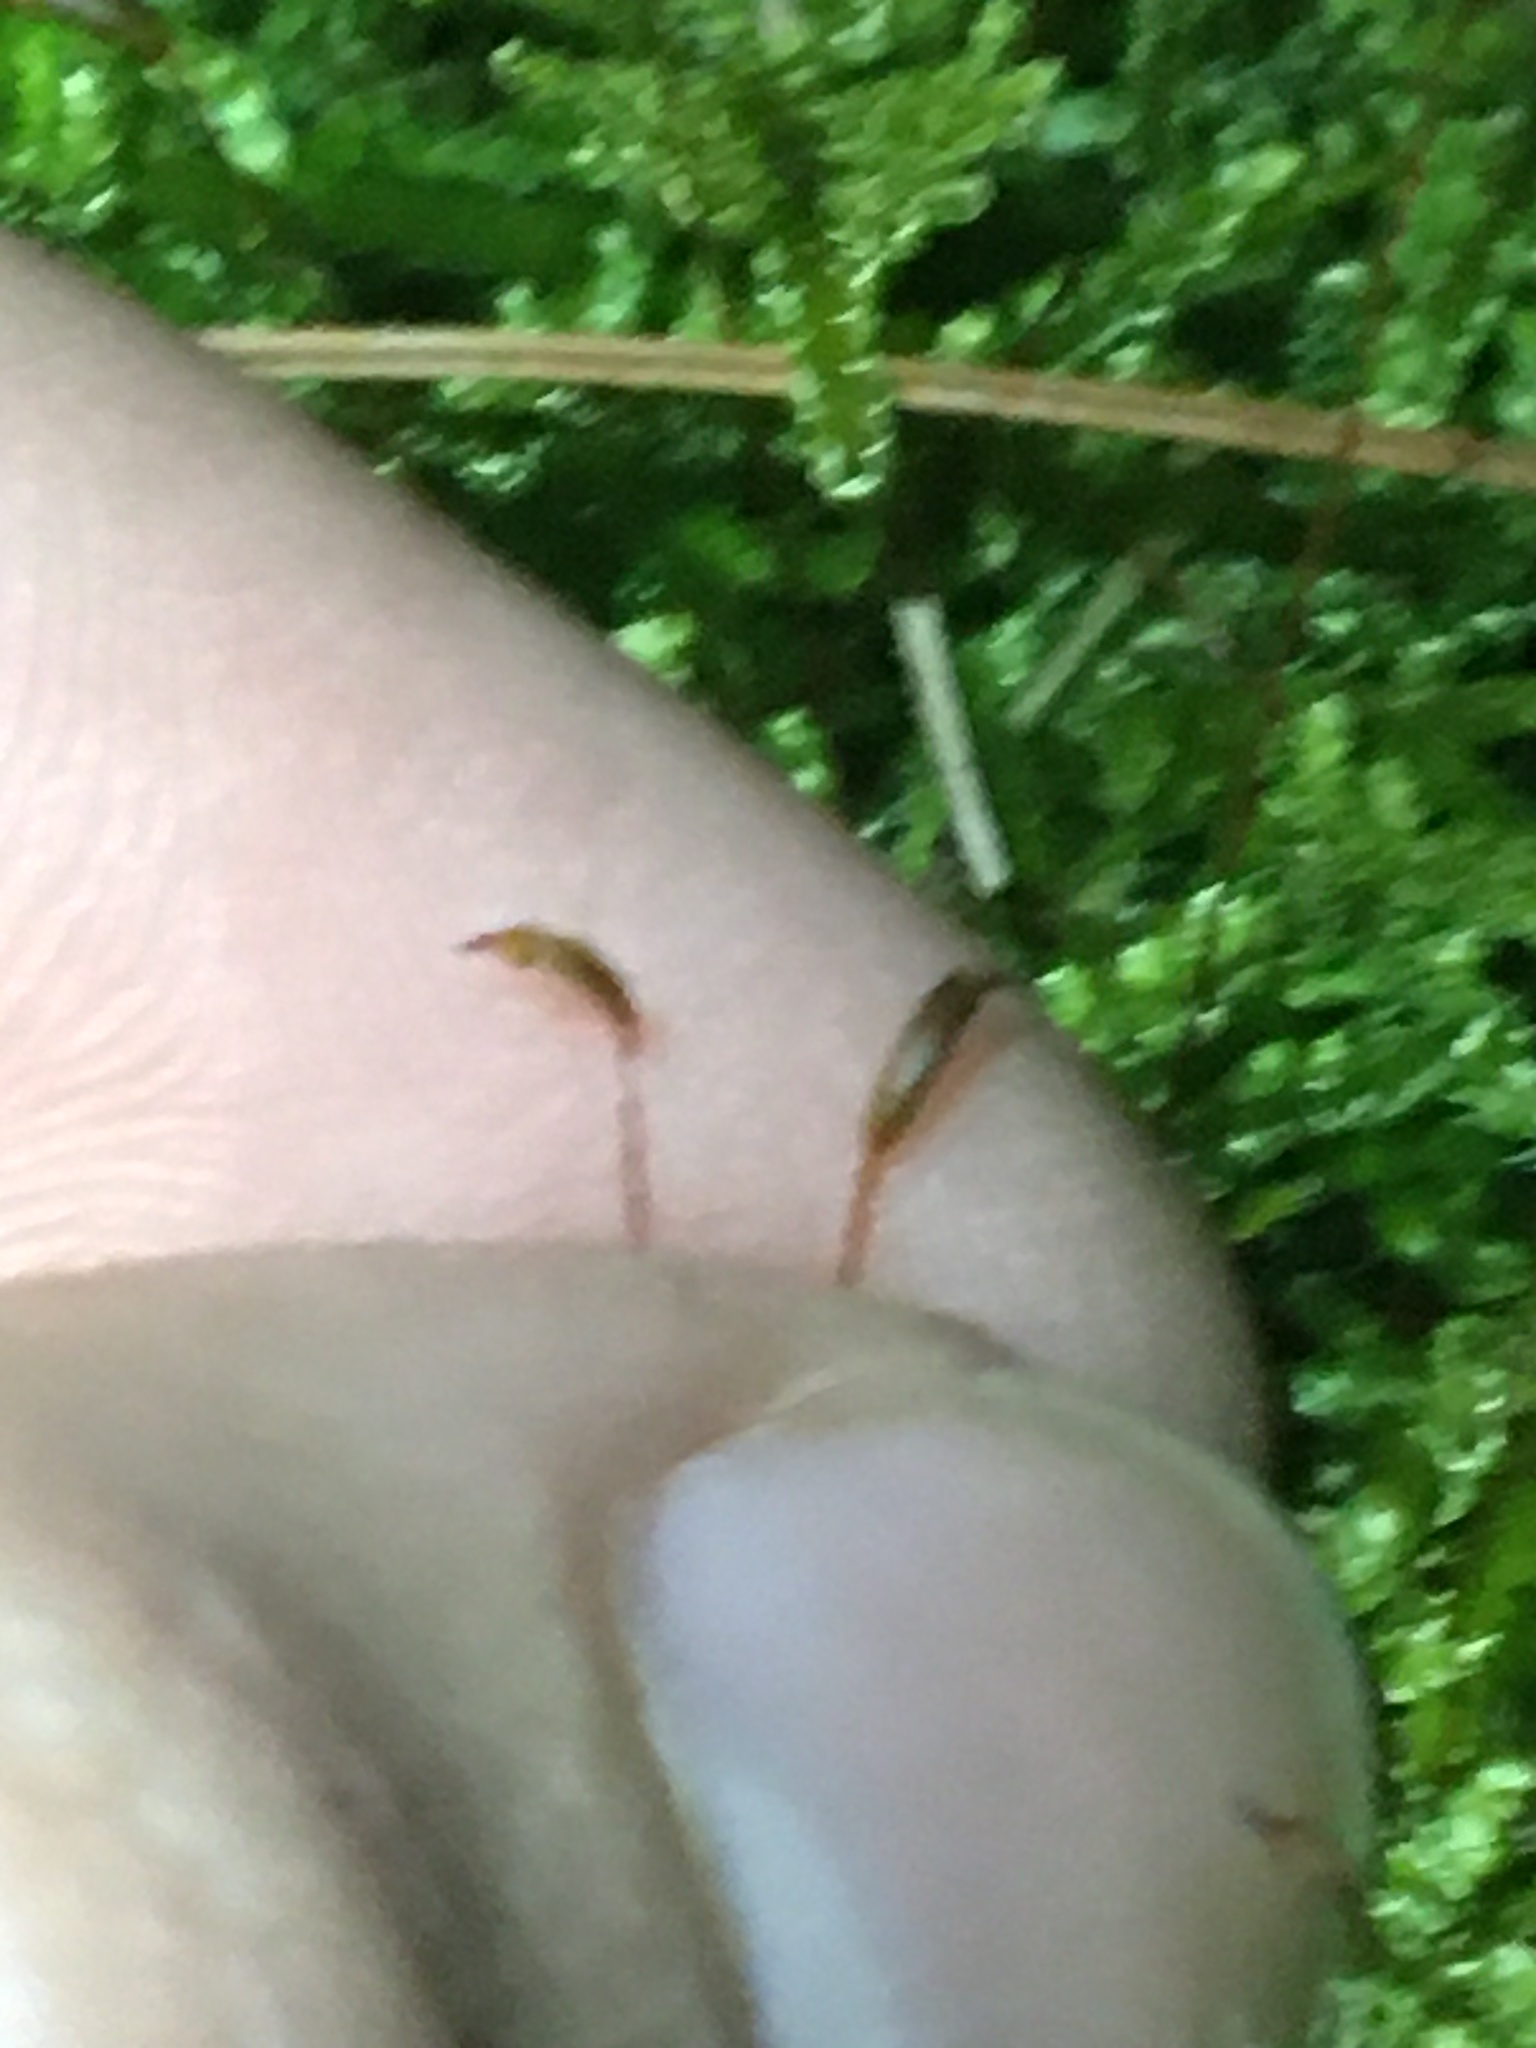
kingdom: Plantae
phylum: Bryophyta
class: Bryopsida
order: Hypnales
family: Callicladiaceae
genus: Callicladium
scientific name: Callicladium imponens
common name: Brocade moss
